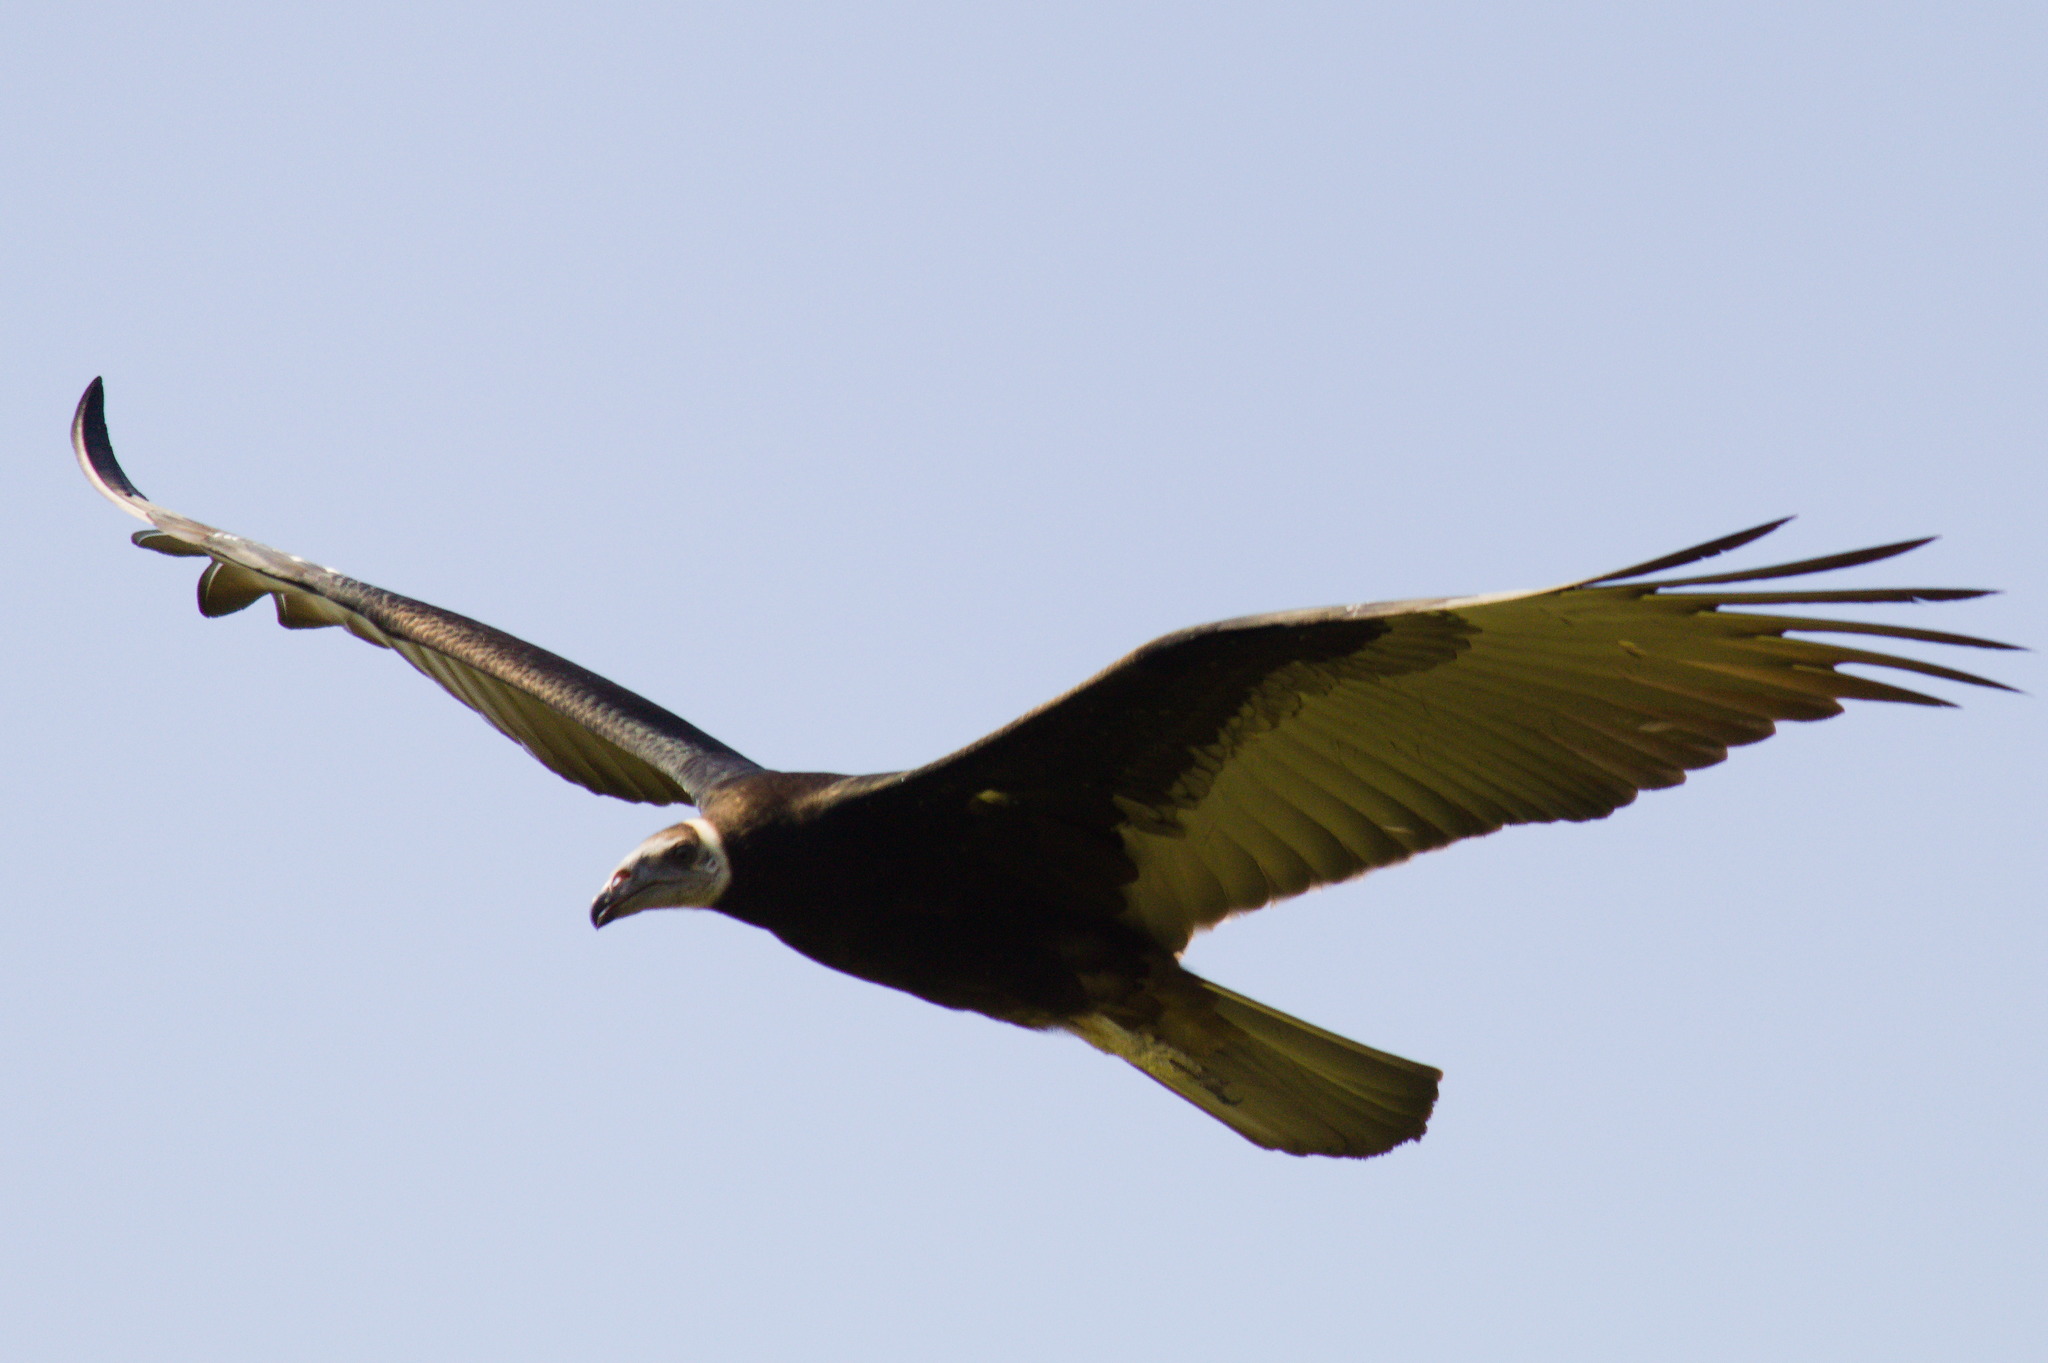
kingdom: Animalia
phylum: Chordata
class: Aves
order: Accipitriformes
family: Cathartidae
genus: Cathartes
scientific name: Cathartes burrovianus
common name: Lesser yellow-headed vulture
